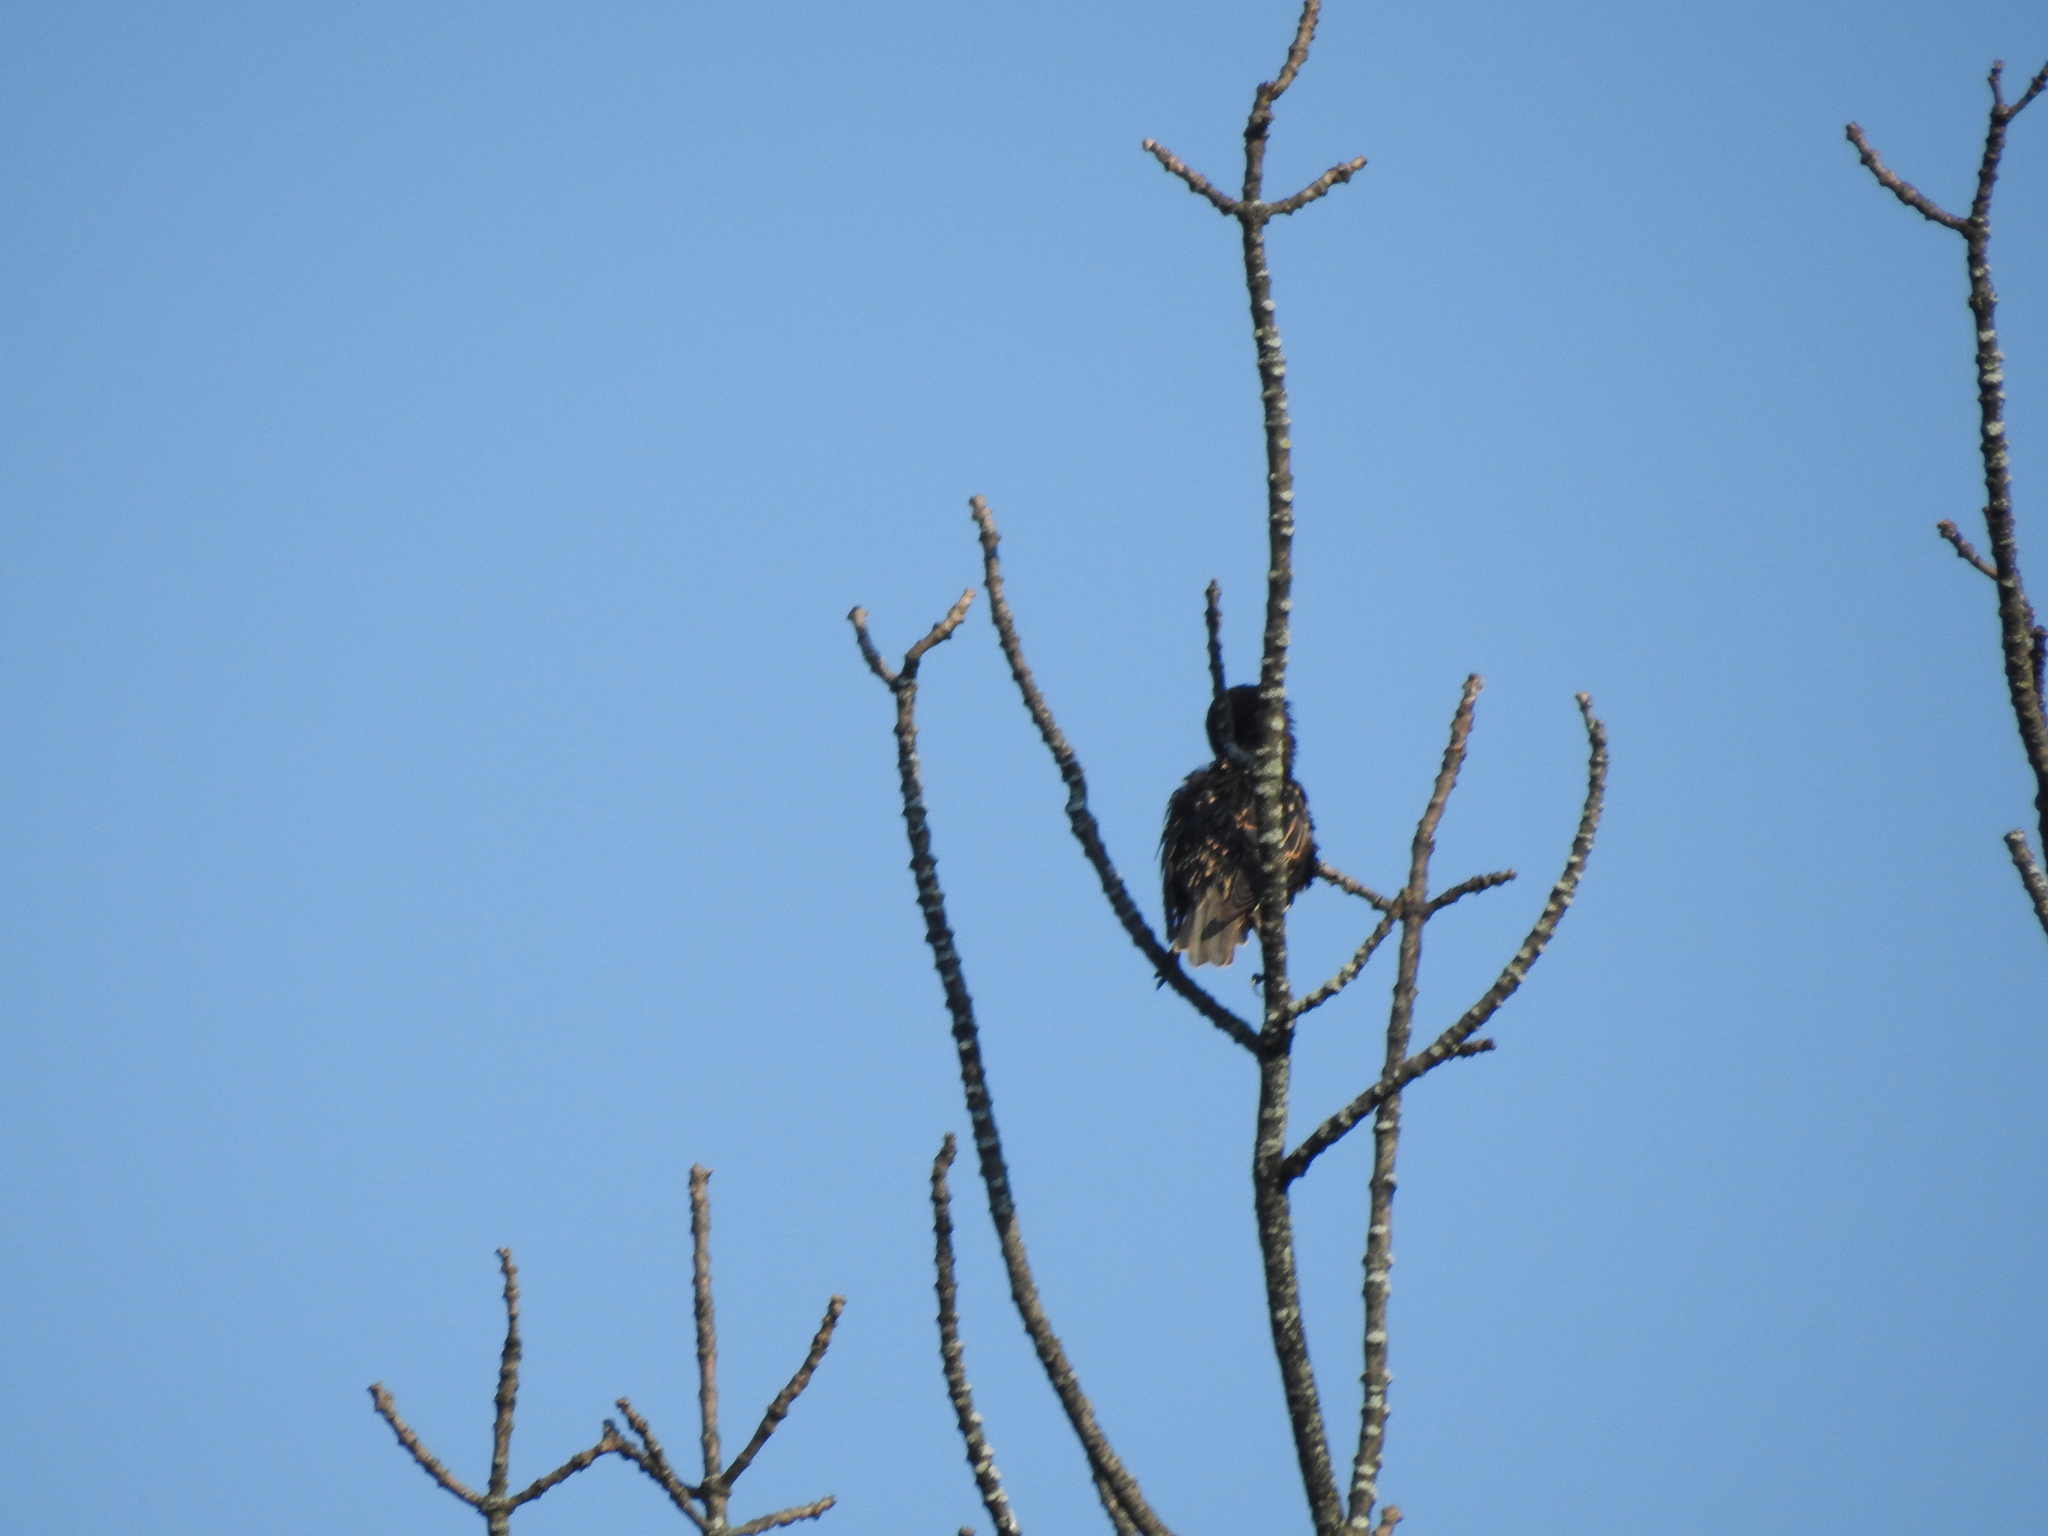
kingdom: Animalia
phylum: Chordata
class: Aves
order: Passeriformes
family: Sturnidae
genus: Sturnus
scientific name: Sturnus vulgaris
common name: Common starling
